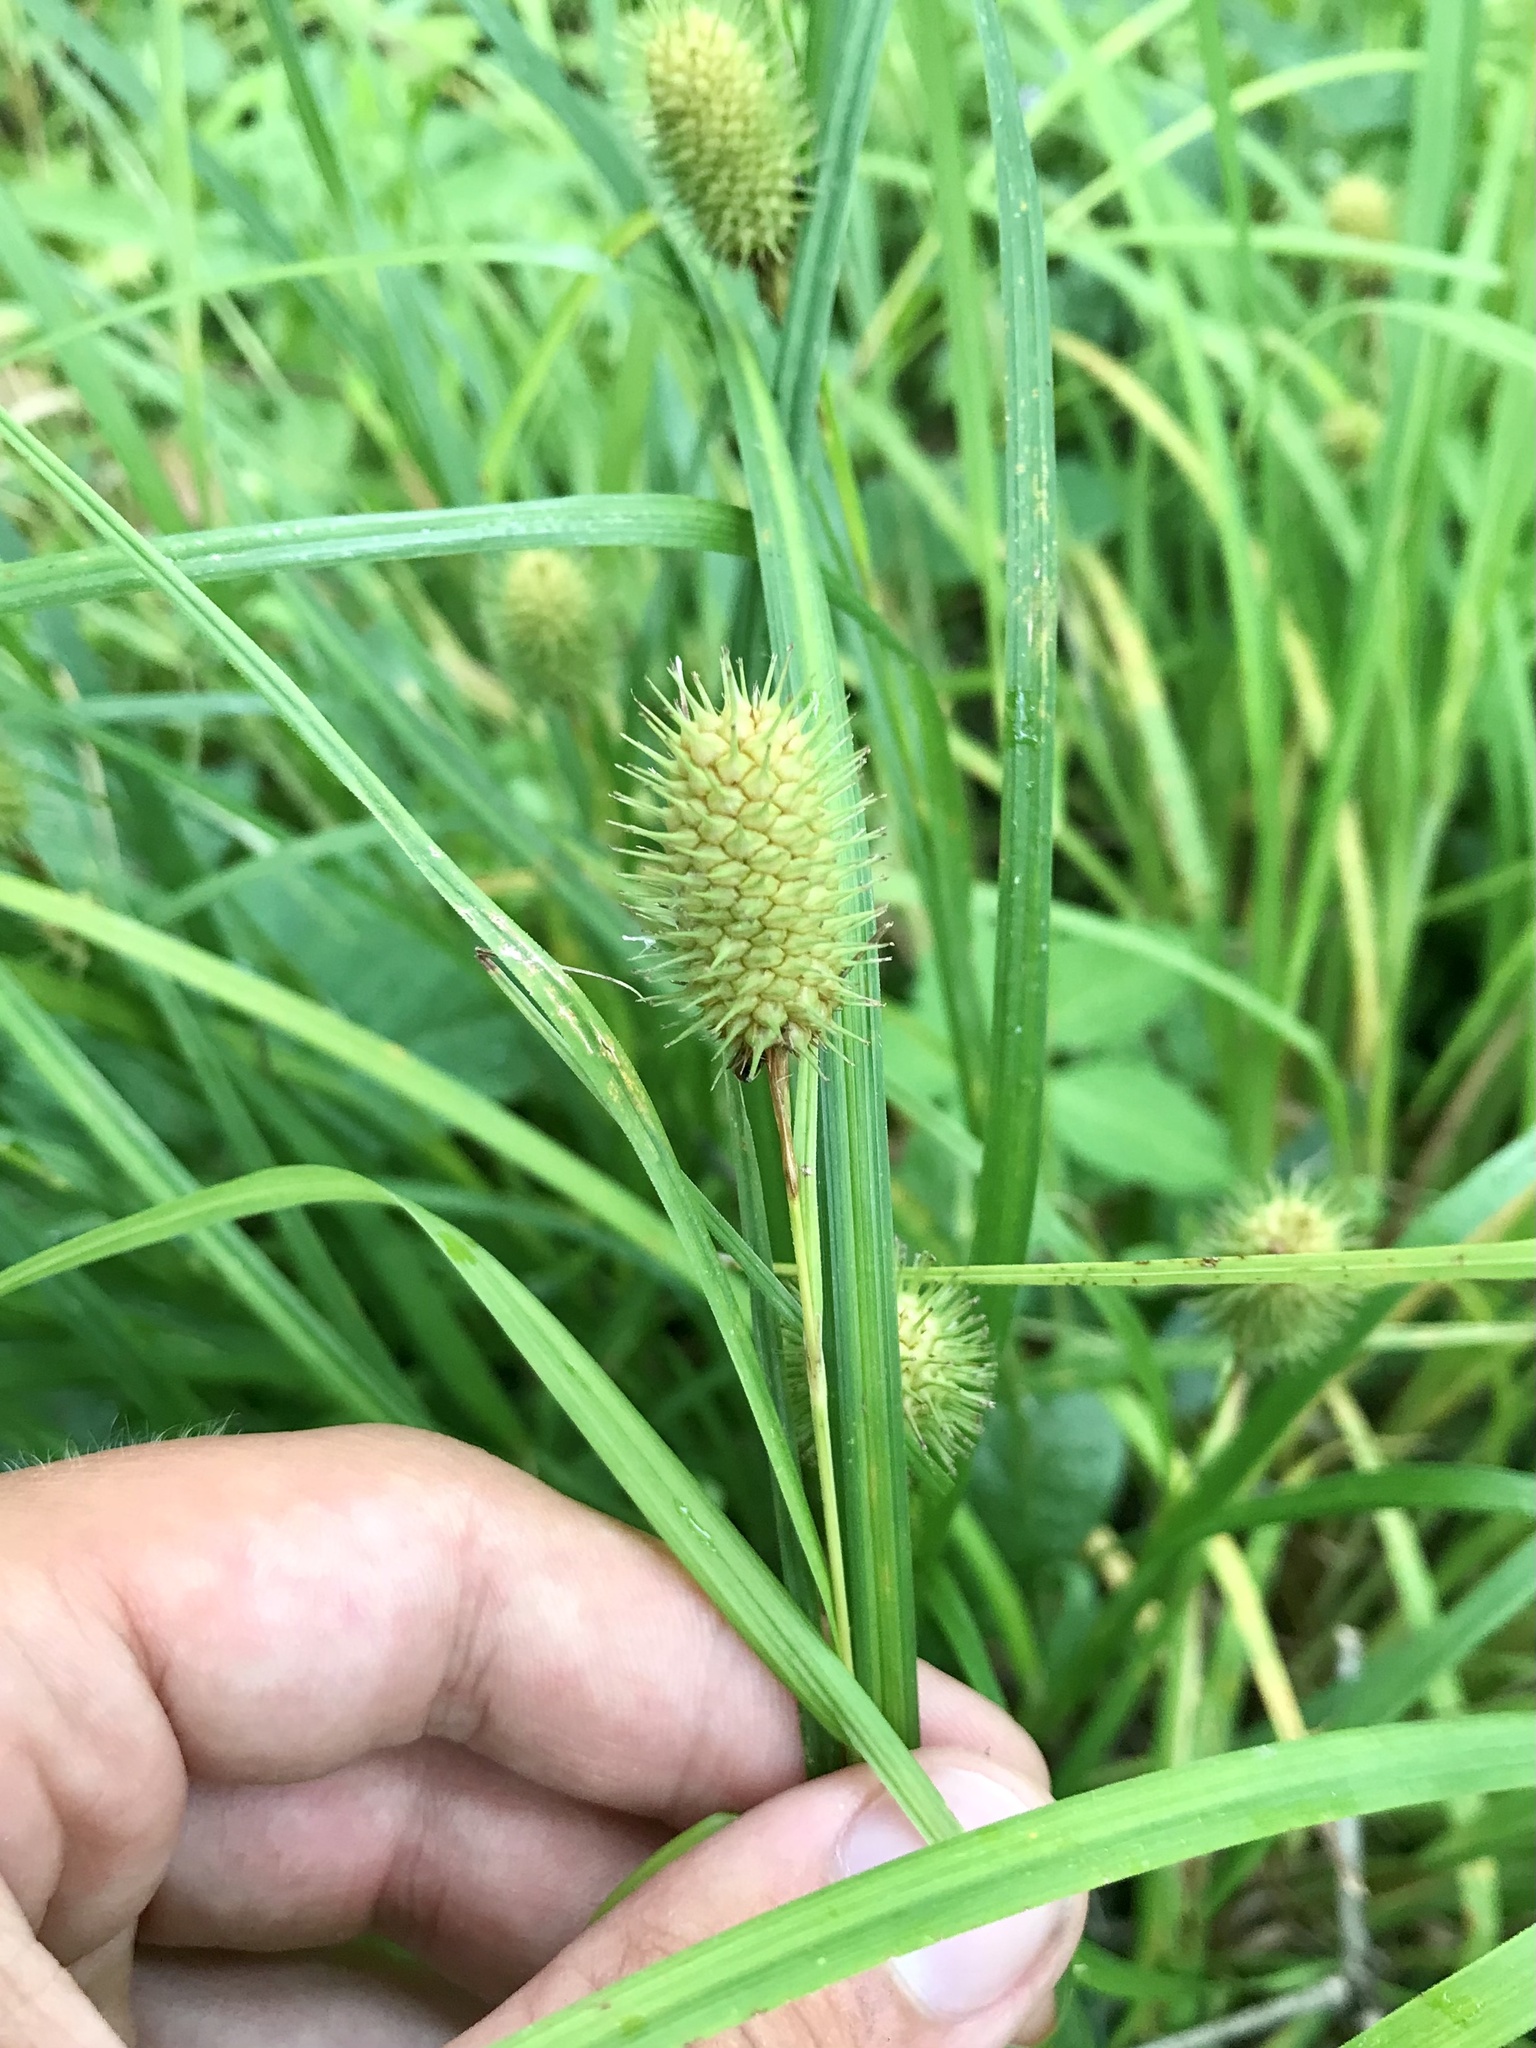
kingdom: Plantae
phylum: Tracheophyta
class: Liliopsida
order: Poales
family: Cyperaceae
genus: Carex
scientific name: Carex squarrosa
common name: Narrow-leaved cattail sedge
